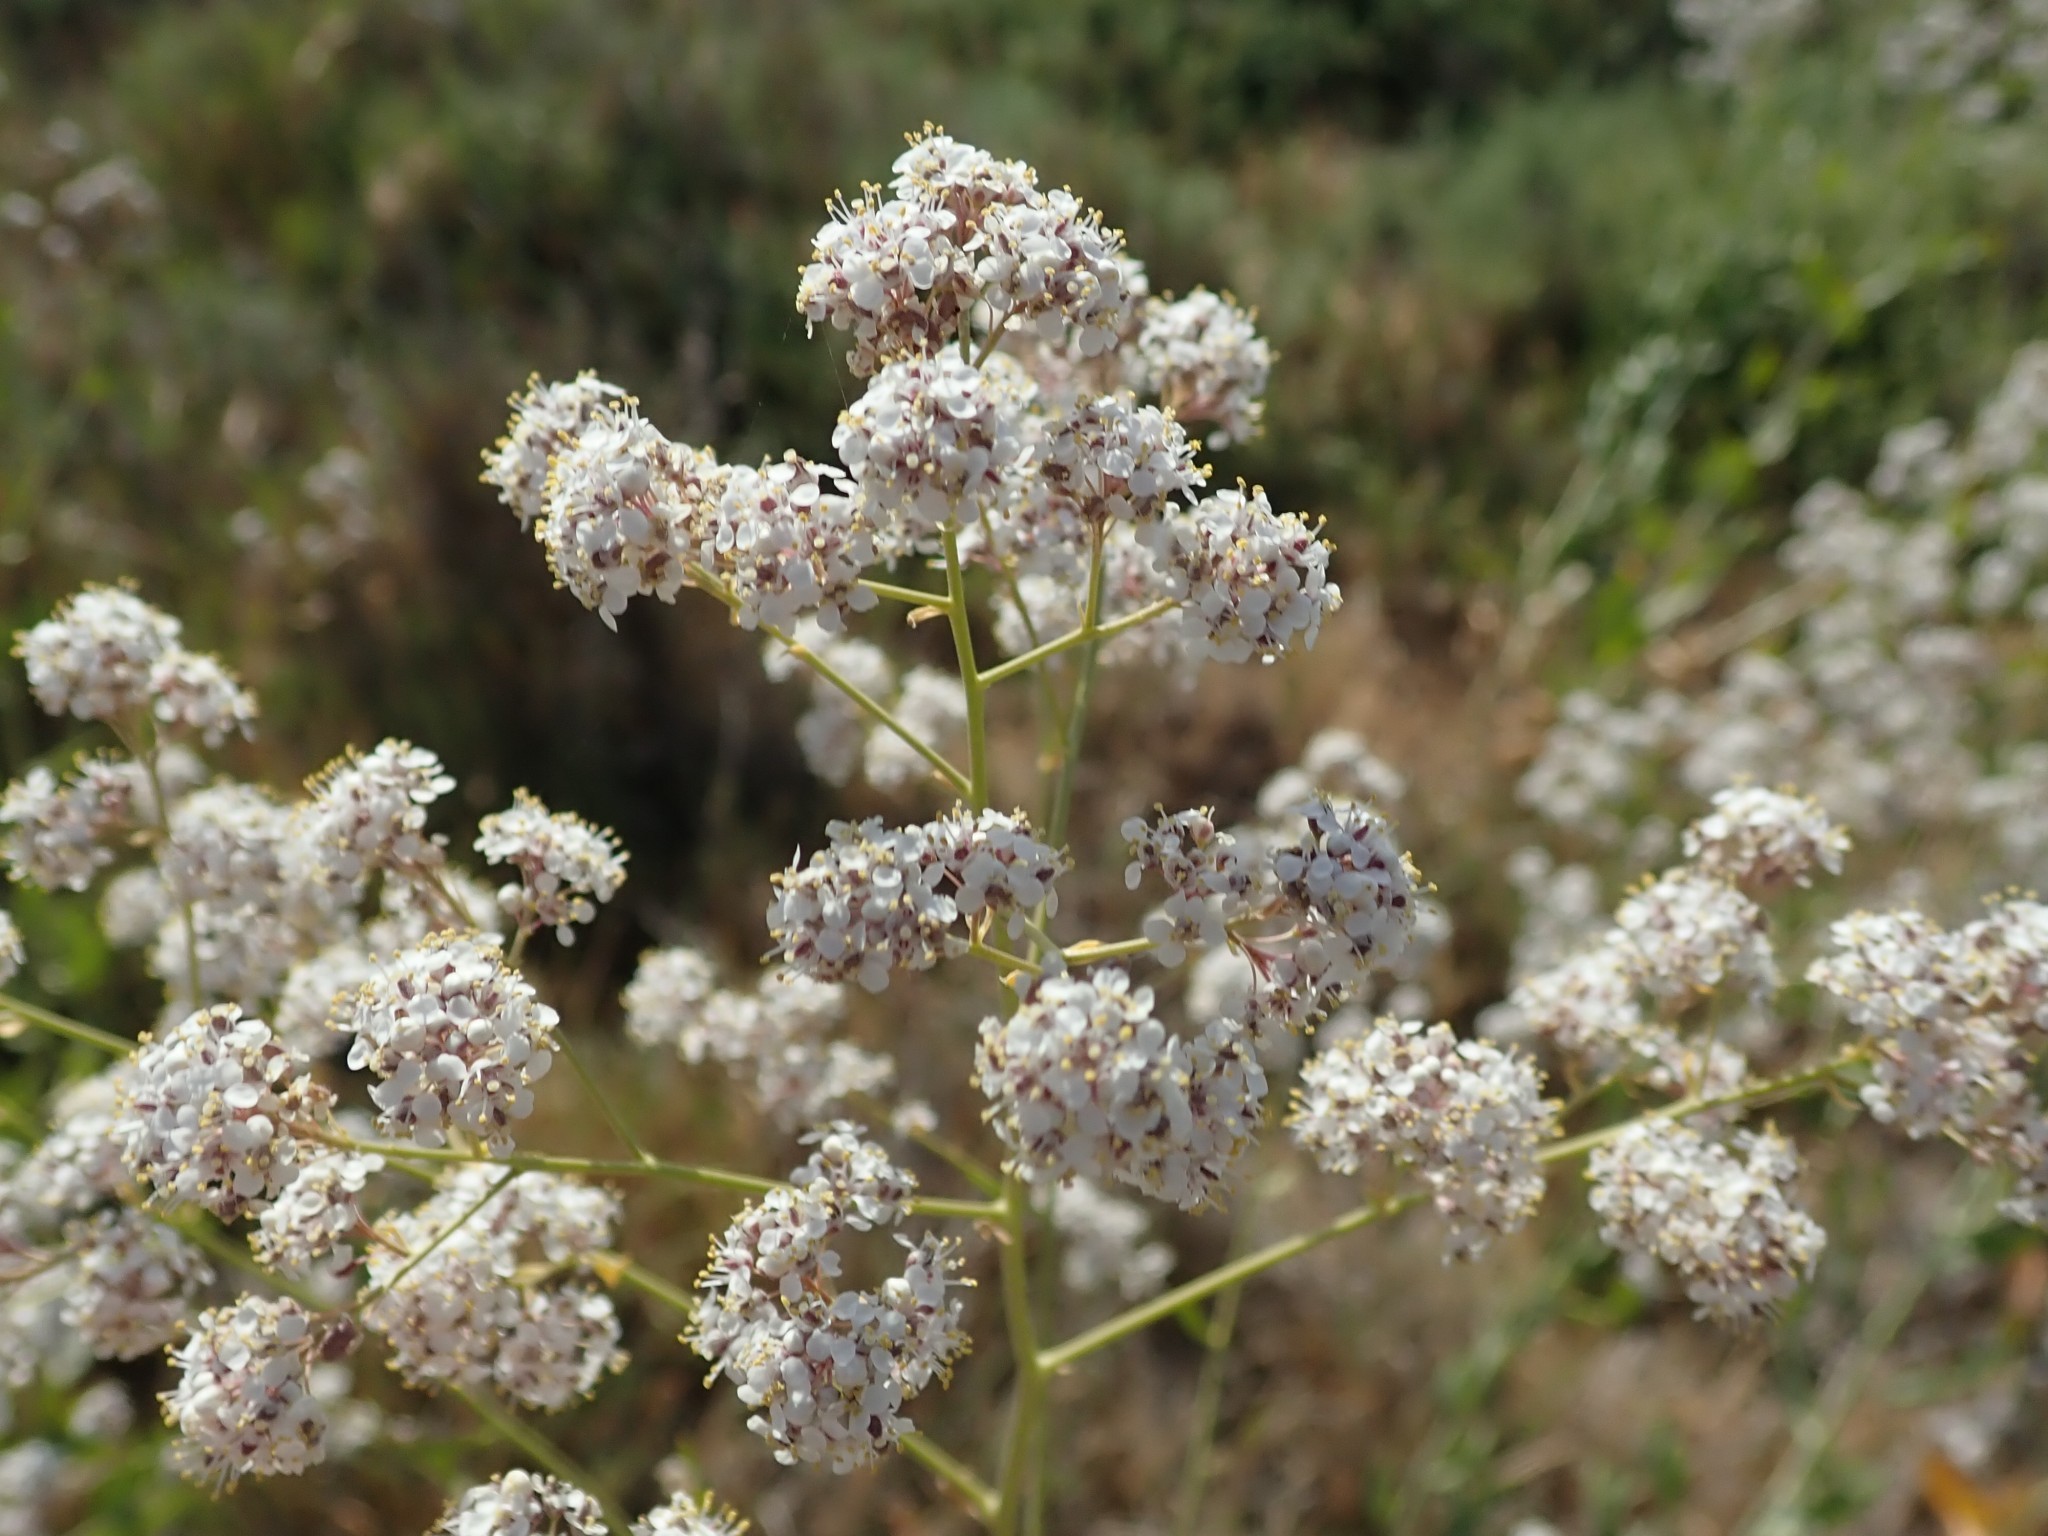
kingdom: Plantae
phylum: Tracheophyta
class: Magnoliopsida
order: Brassicales
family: Brassicaceae
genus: Lepidium
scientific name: Lepidium latifolium
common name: Dittander
